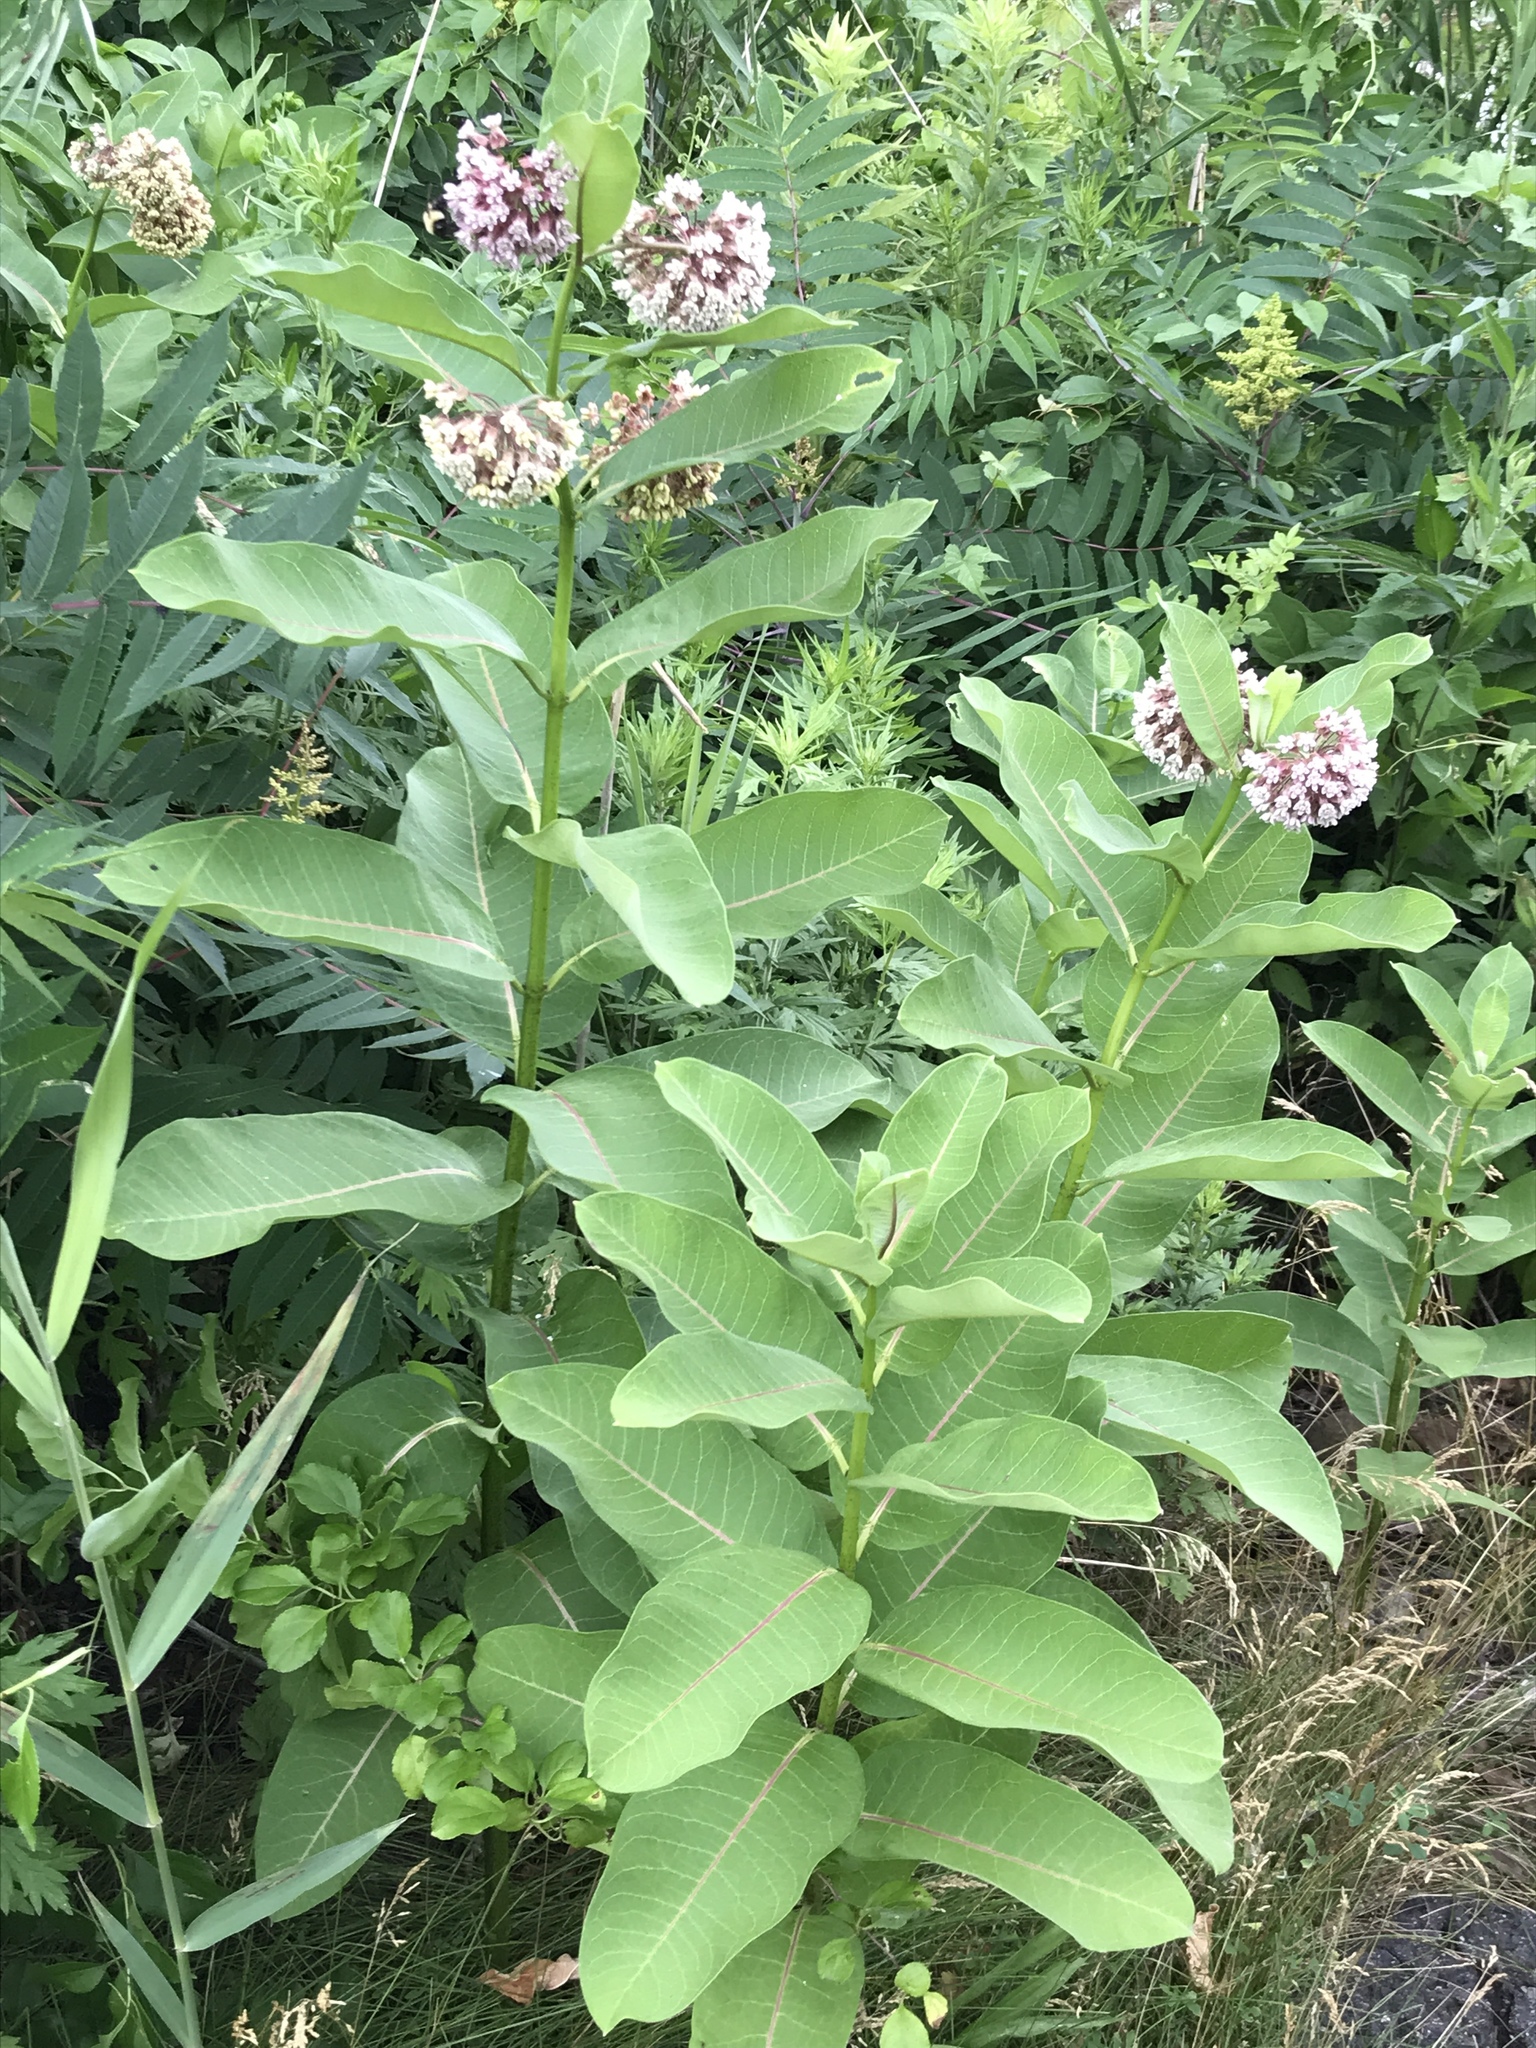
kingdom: Plantae
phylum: Tracheophyta
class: Magnoliopsida
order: Gentianales
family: Apocynaceae
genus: Asclepias
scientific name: Asclepias syriaca
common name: Common milkweed
